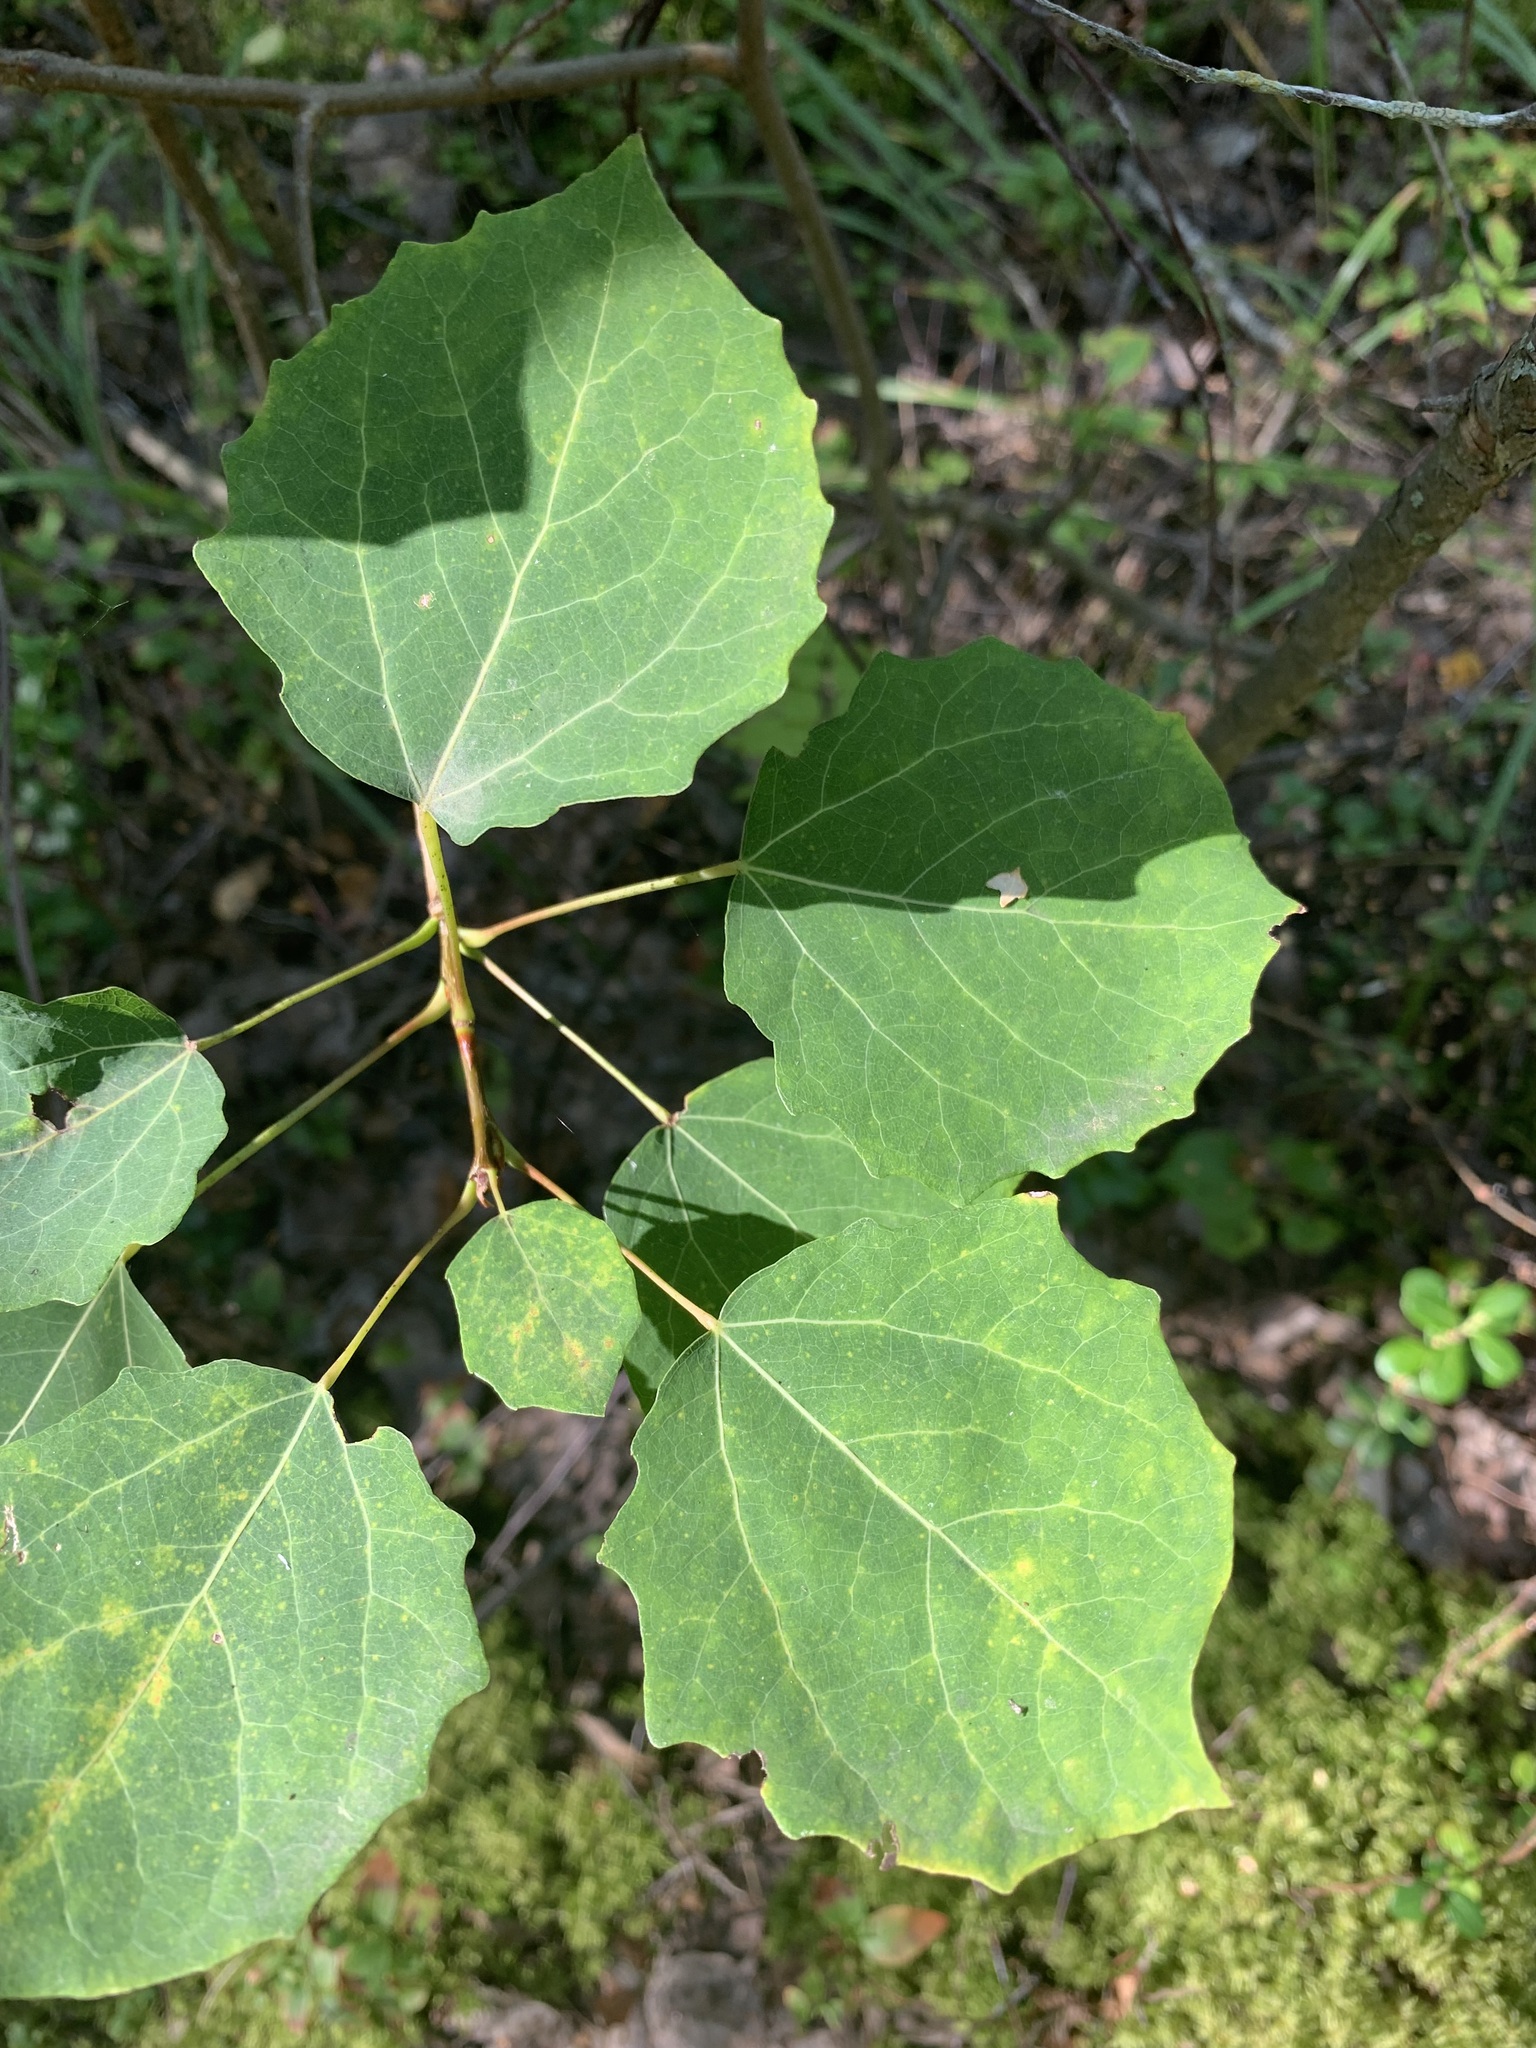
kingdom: Plantae
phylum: Tracheophyta
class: Magnoliopsida
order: Malpighiales
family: Salicaceae
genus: Populus
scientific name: Populus tremula
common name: European aspen
